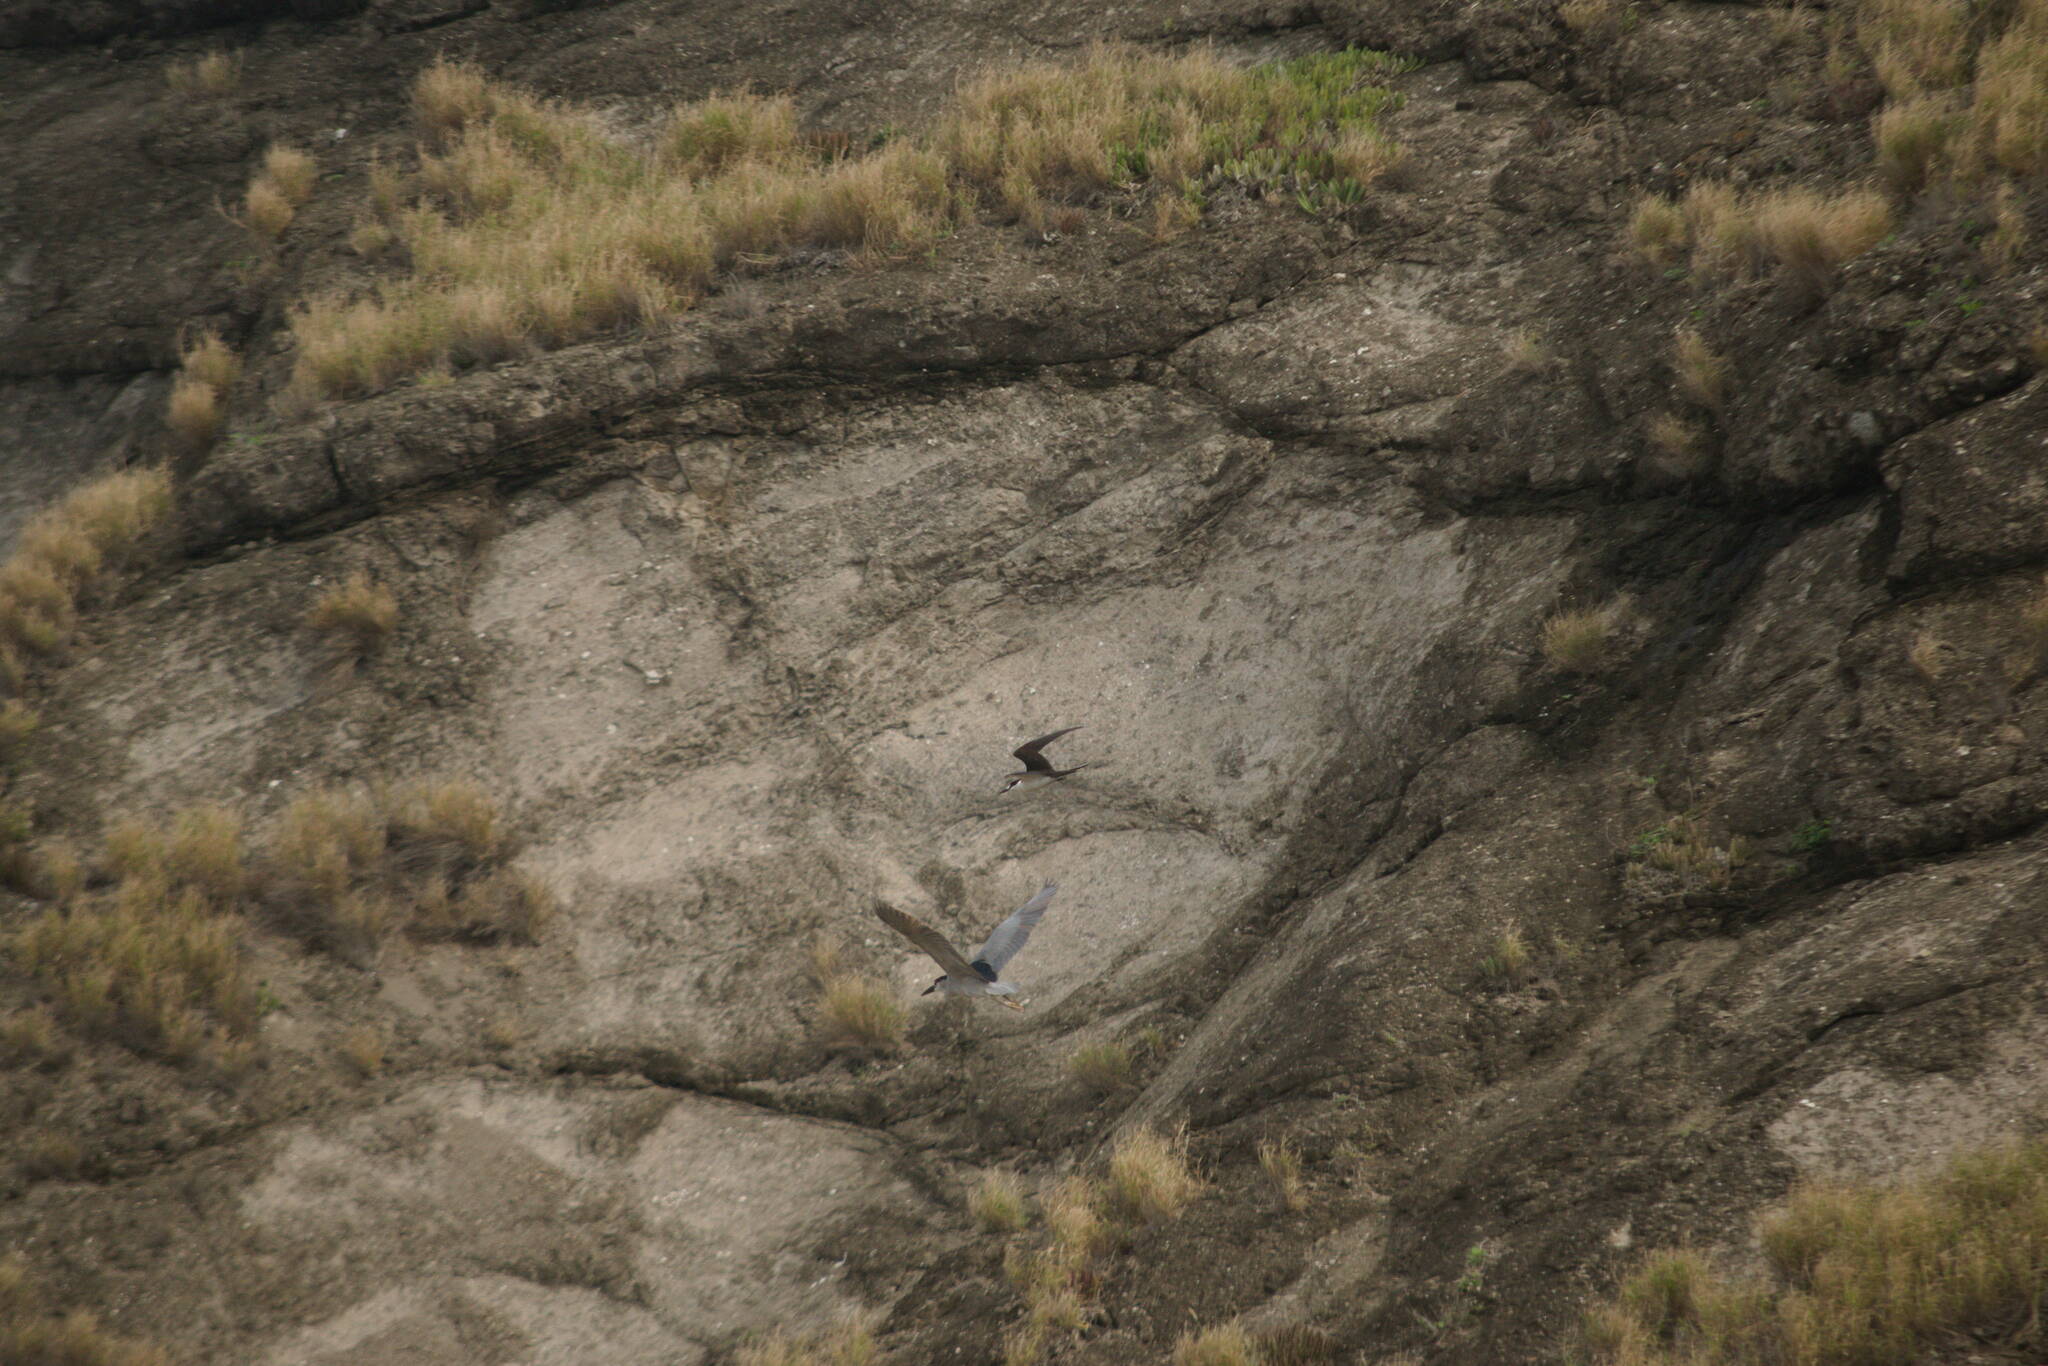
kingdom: Animalia
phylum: Chordata
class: Aves
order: Pelecaniformes
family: Ardeidae
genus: Nycticorax
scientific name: Nycticorax nycticorax
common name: Black-crowned night heron
